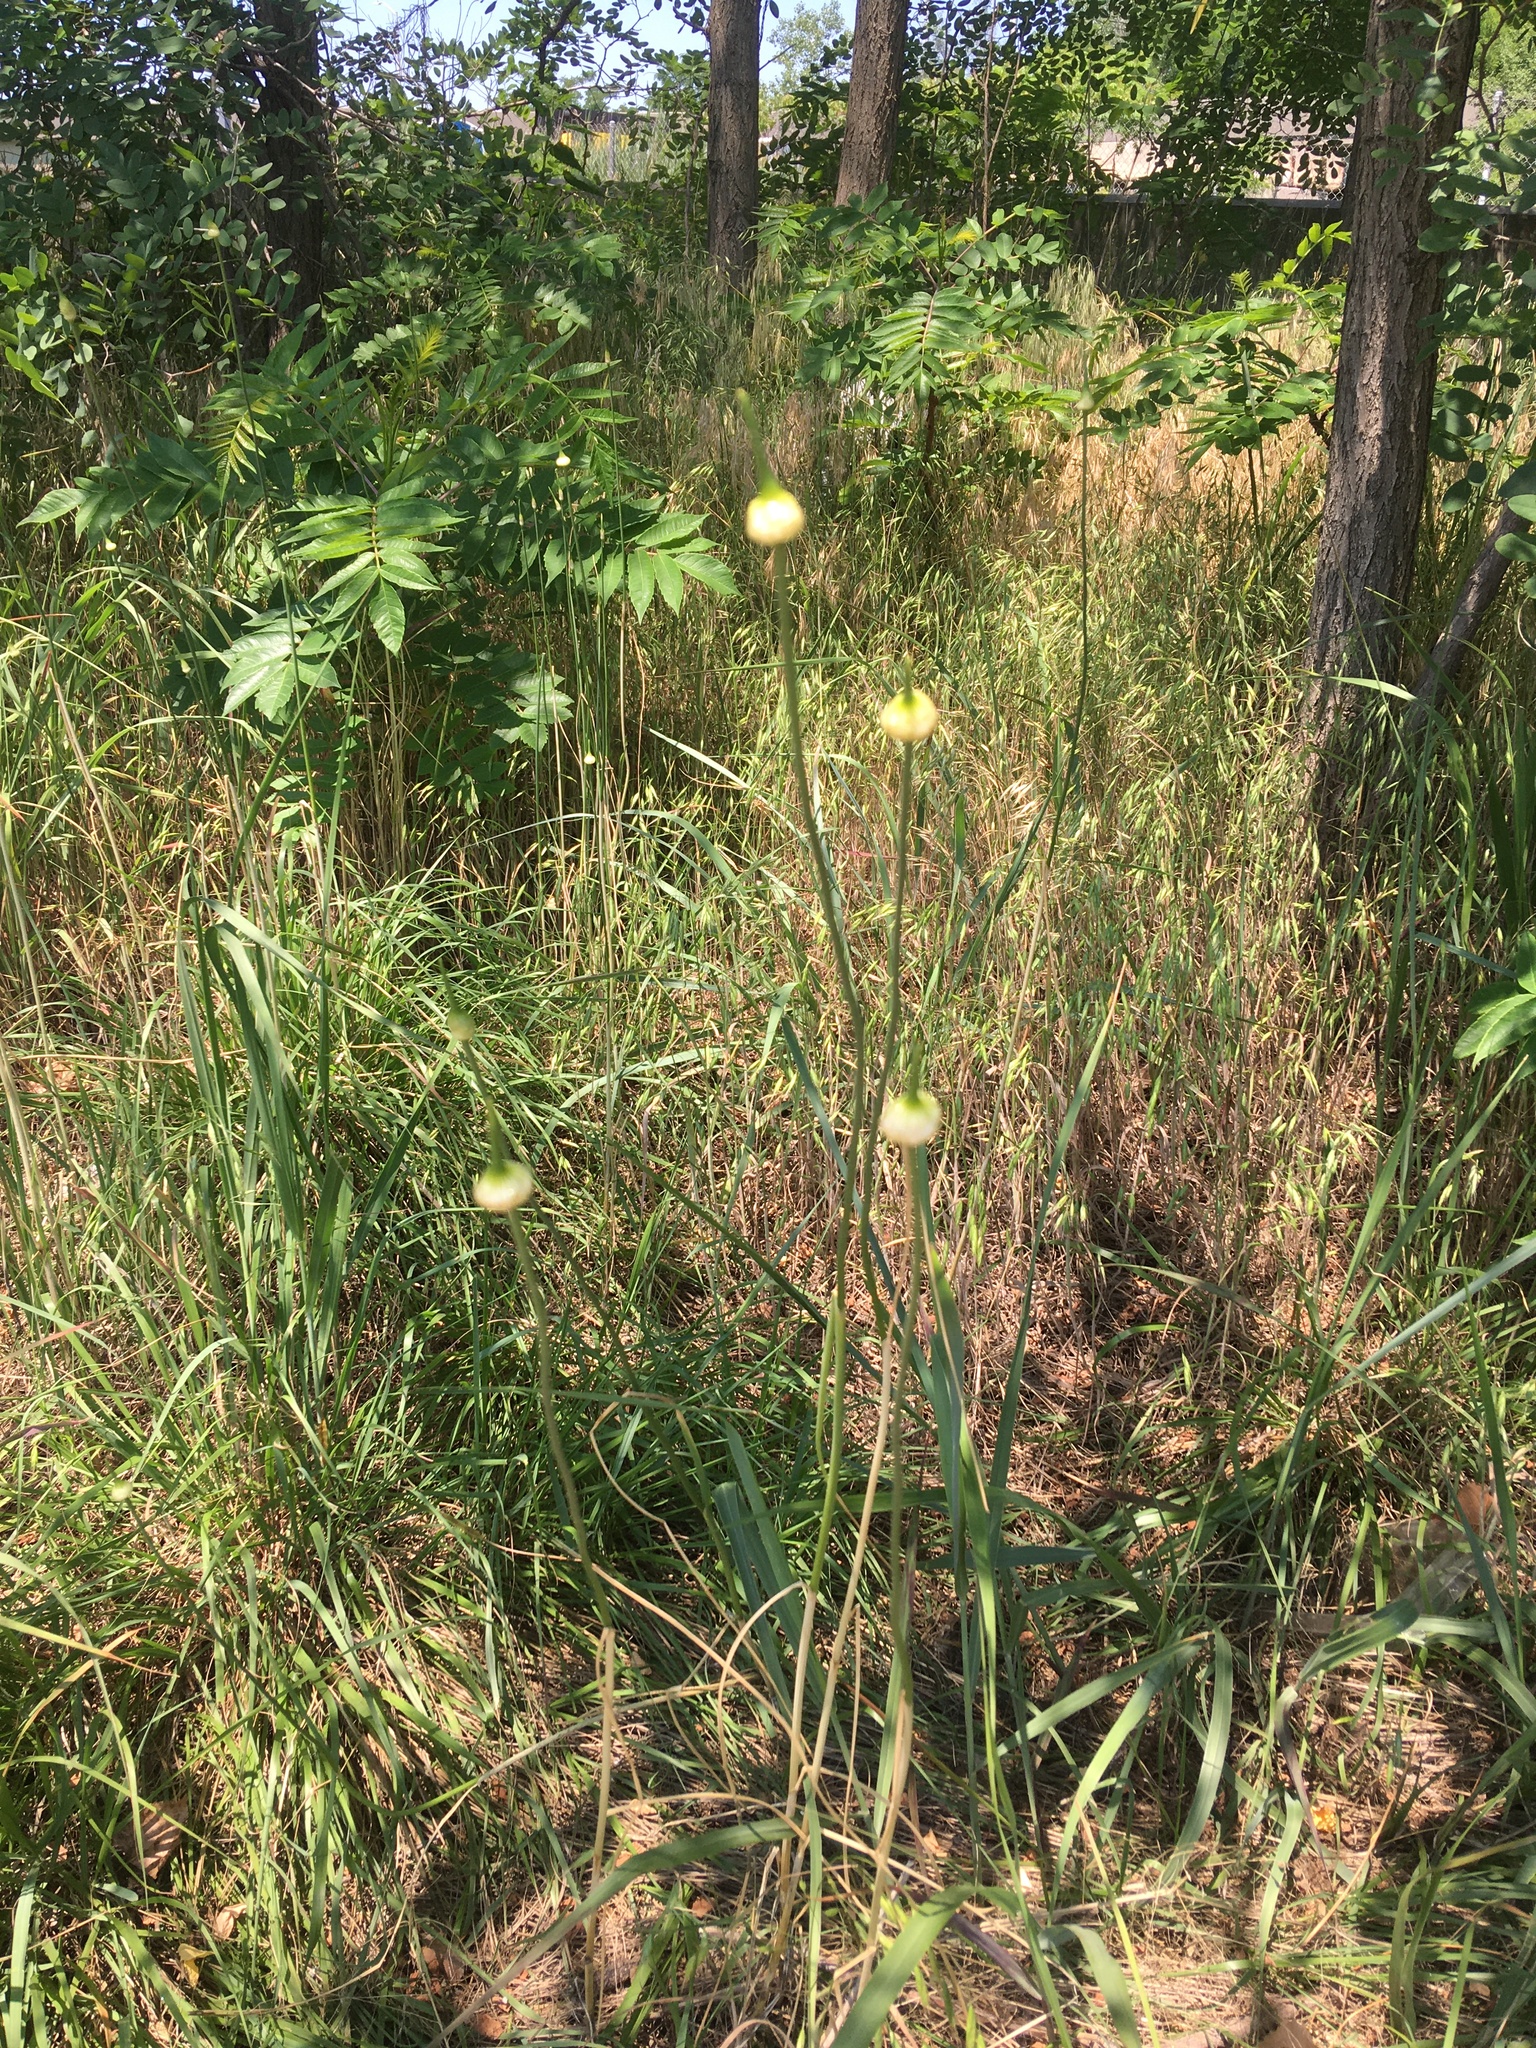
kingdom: Plantae
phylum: Tracheophyta
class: Liliopsida
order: Asparagales
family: Amaryllidaceae
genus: Allium
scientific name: Allium canadense
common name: Meadow garlic
